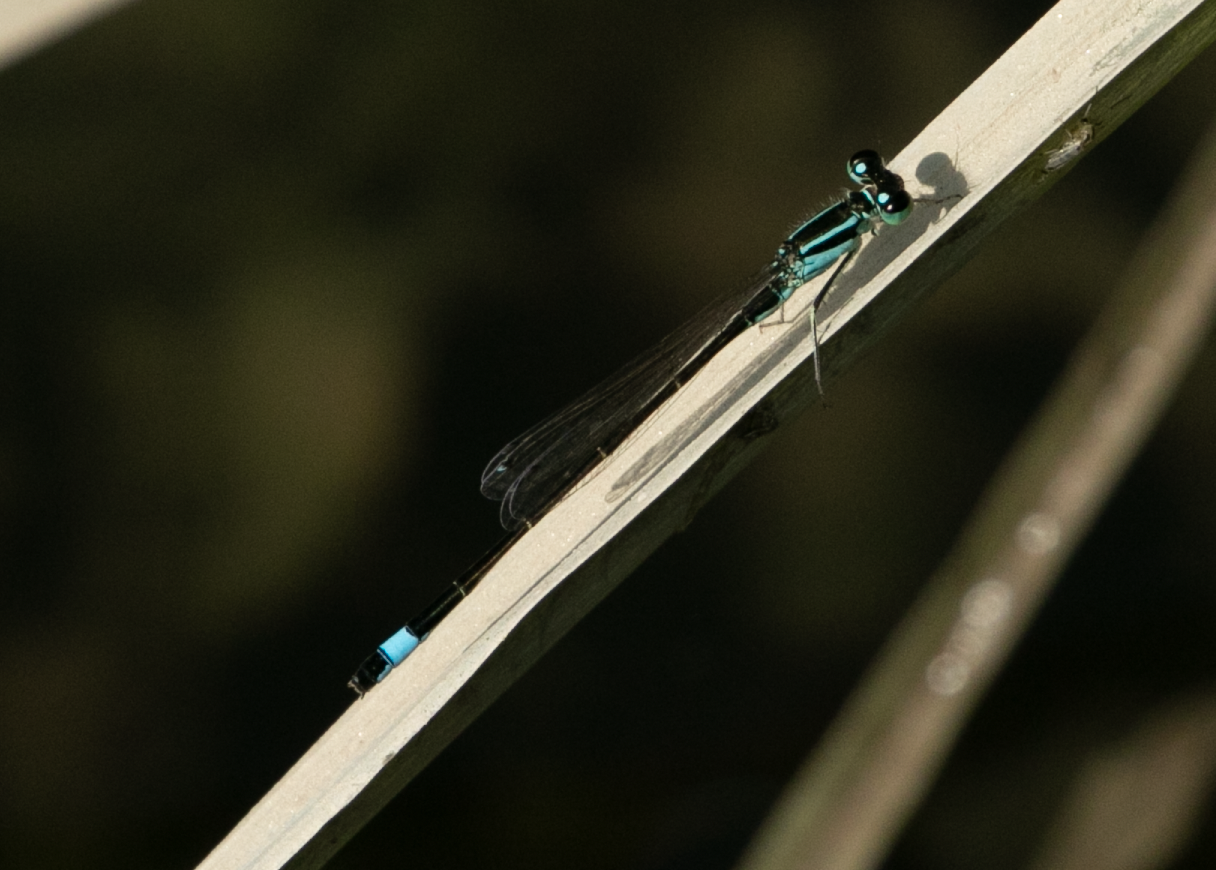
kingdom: Animalia
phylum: Arthropoda
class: Insecta
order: Odonata
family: Coenagrionidae
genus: Ischnura
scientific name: Ischnura elegans
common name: Blue-tailed damselfly
